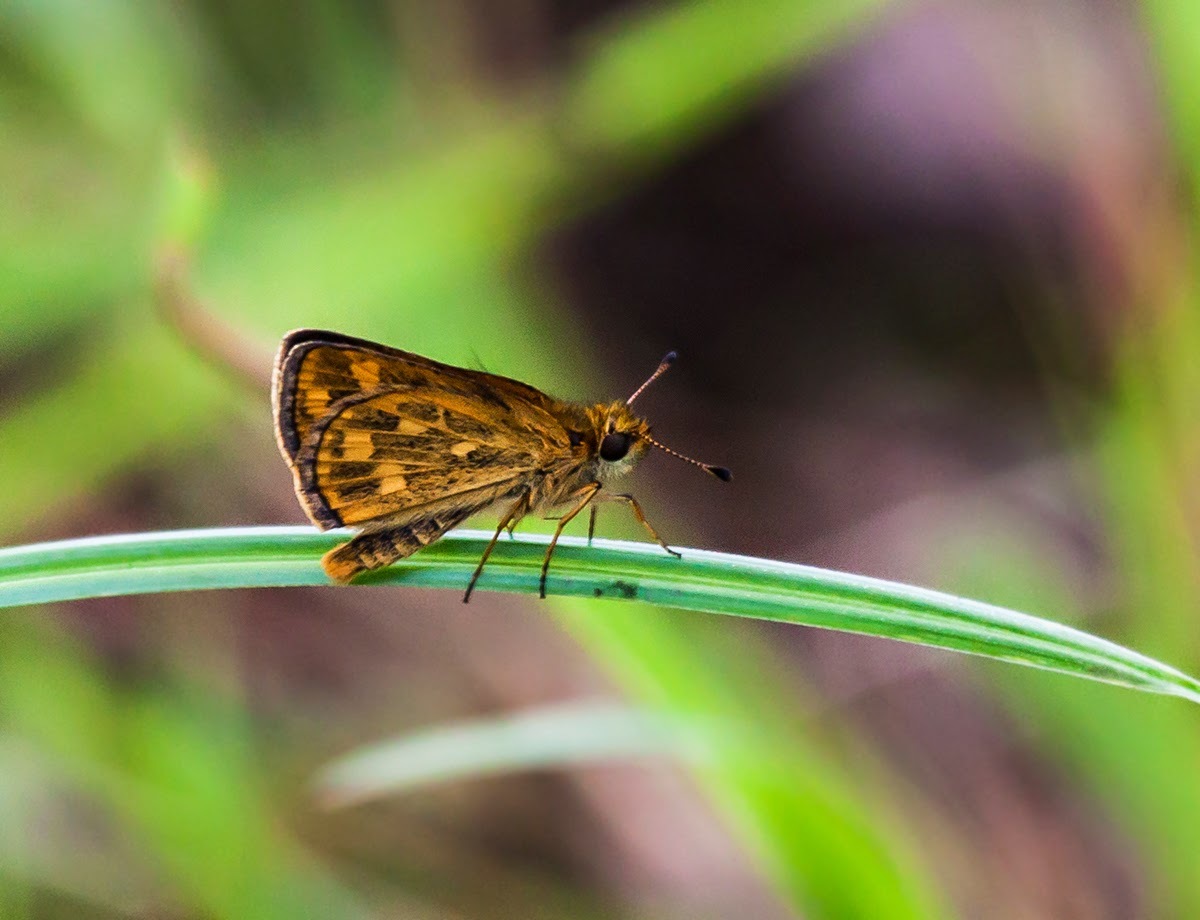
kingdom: Animalia
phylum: Arthropoda
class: Insecta
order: Lepidoptera
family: Hesperiidae
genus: Taractrocera
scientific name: Taractrocera ceramas
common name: Tamil grass dart
